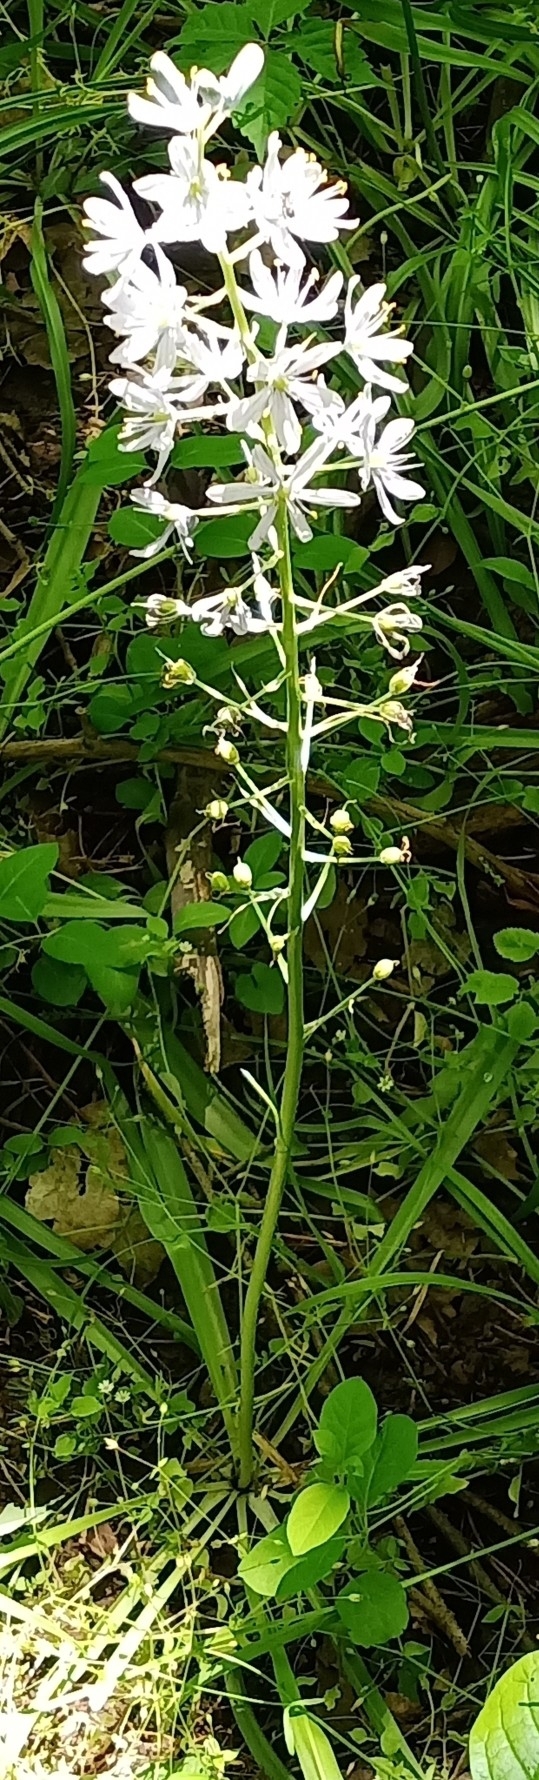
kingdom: Plantae
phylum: Tracheophyta
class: Liliopsida
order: Asparagales
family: Asparagaceae
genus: Camassia
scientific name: Camassia scilloides
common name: Wild hyacinth
